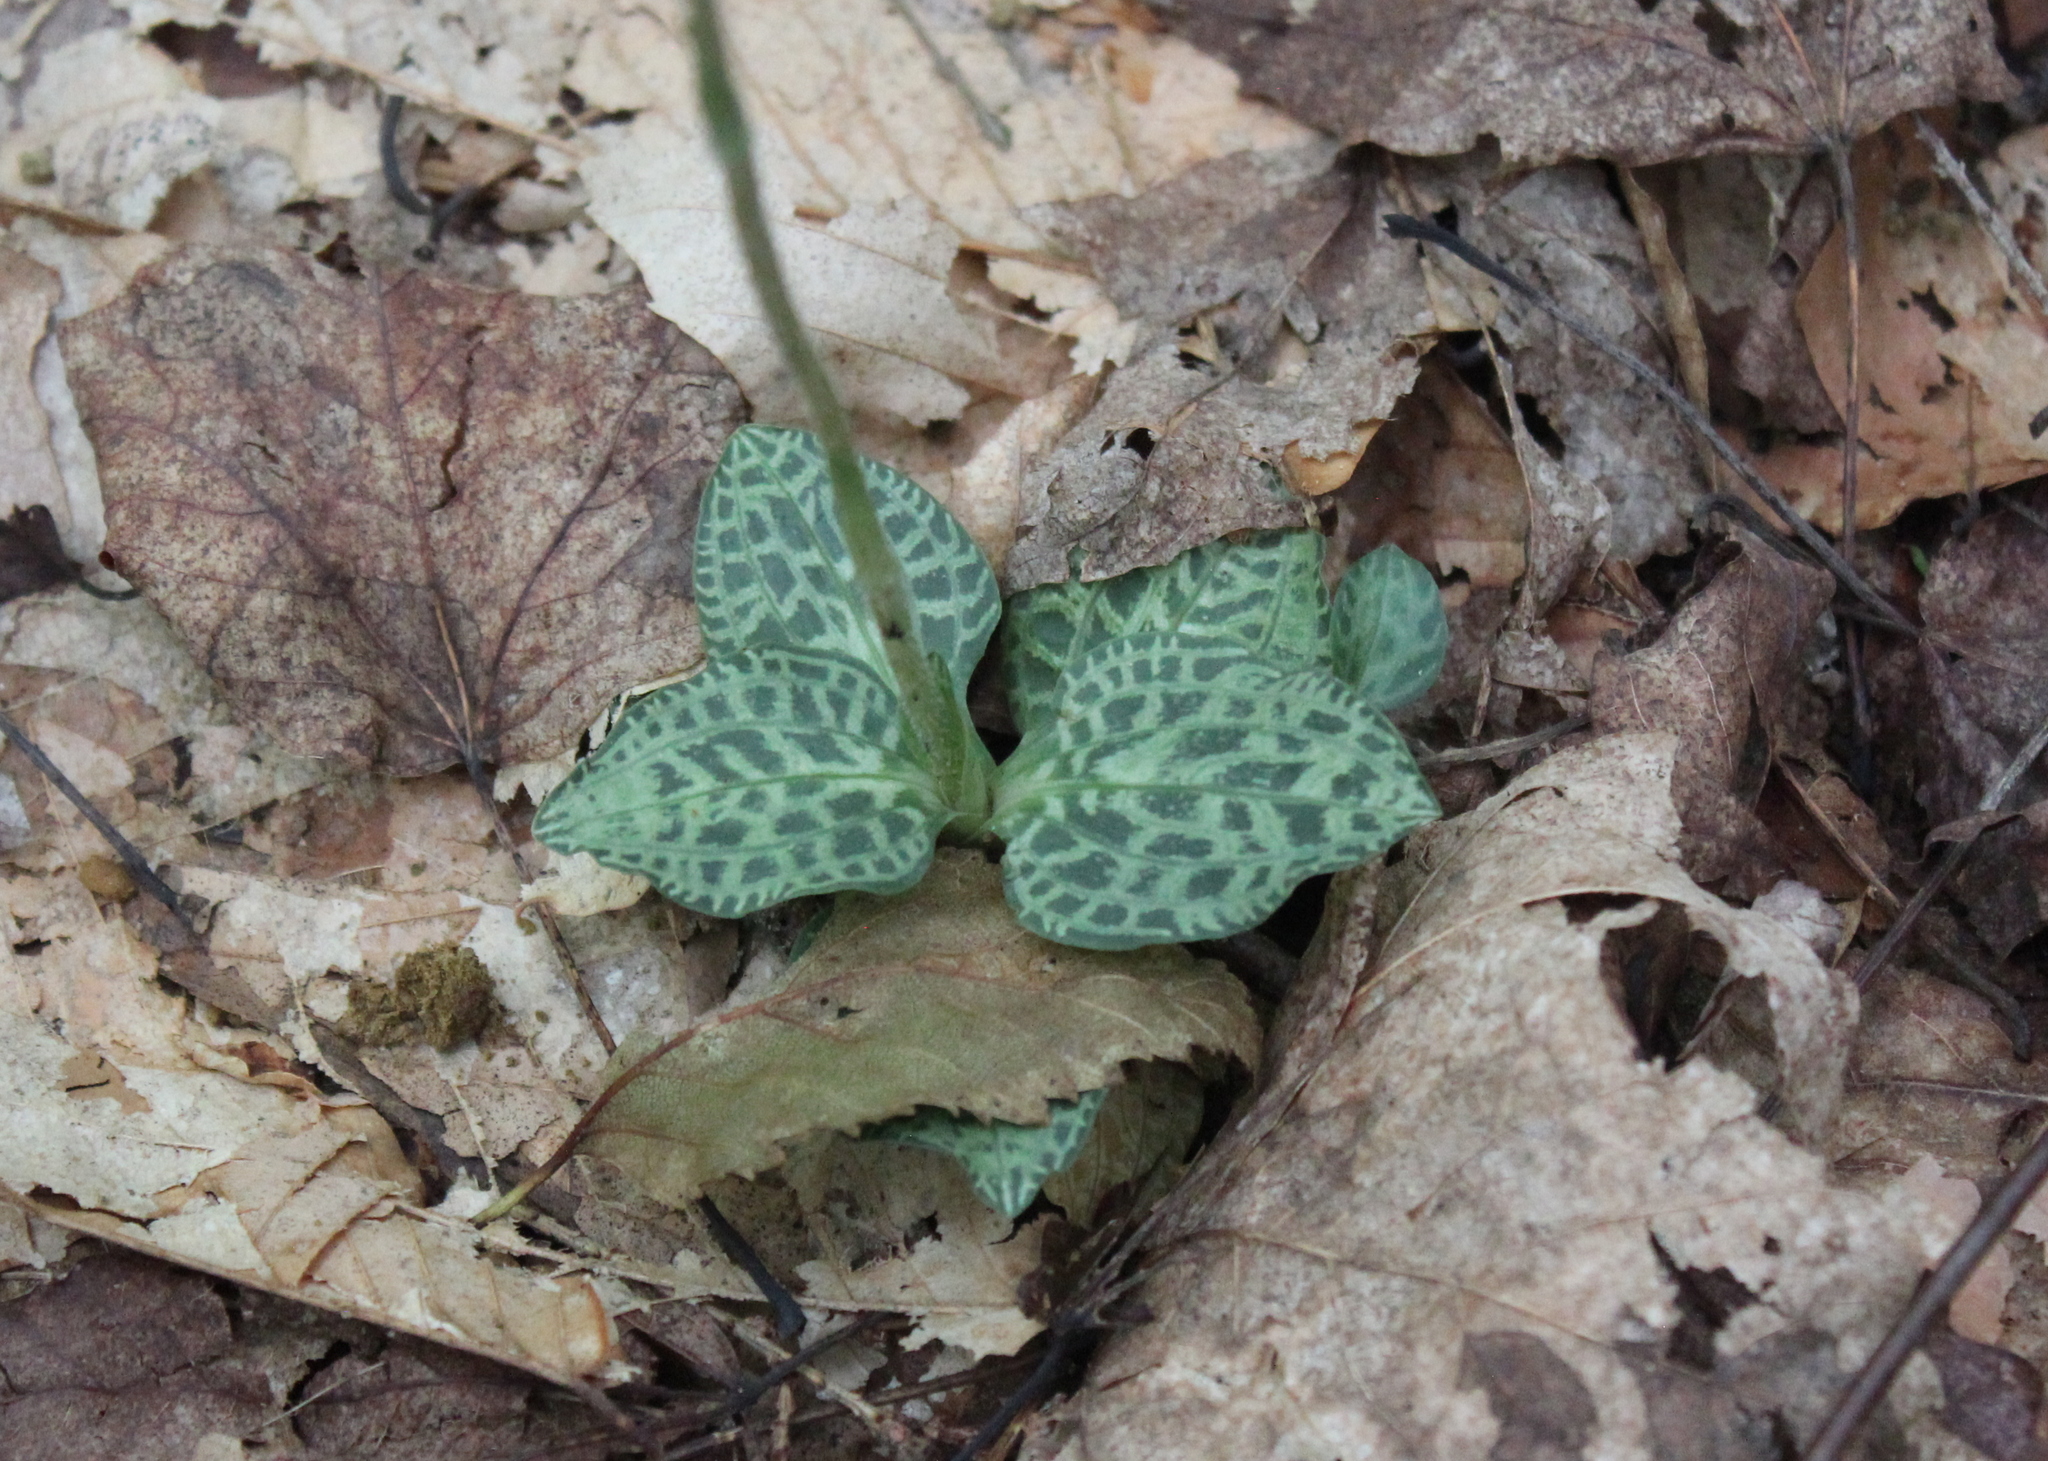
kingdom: Plantae
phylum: Tracheophyta
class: Liliopsida
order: Asparagales
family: Orchidaceae
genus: Goodyera
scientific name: Goodyera tesselata
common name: Checkered rattlesnake-plantain
